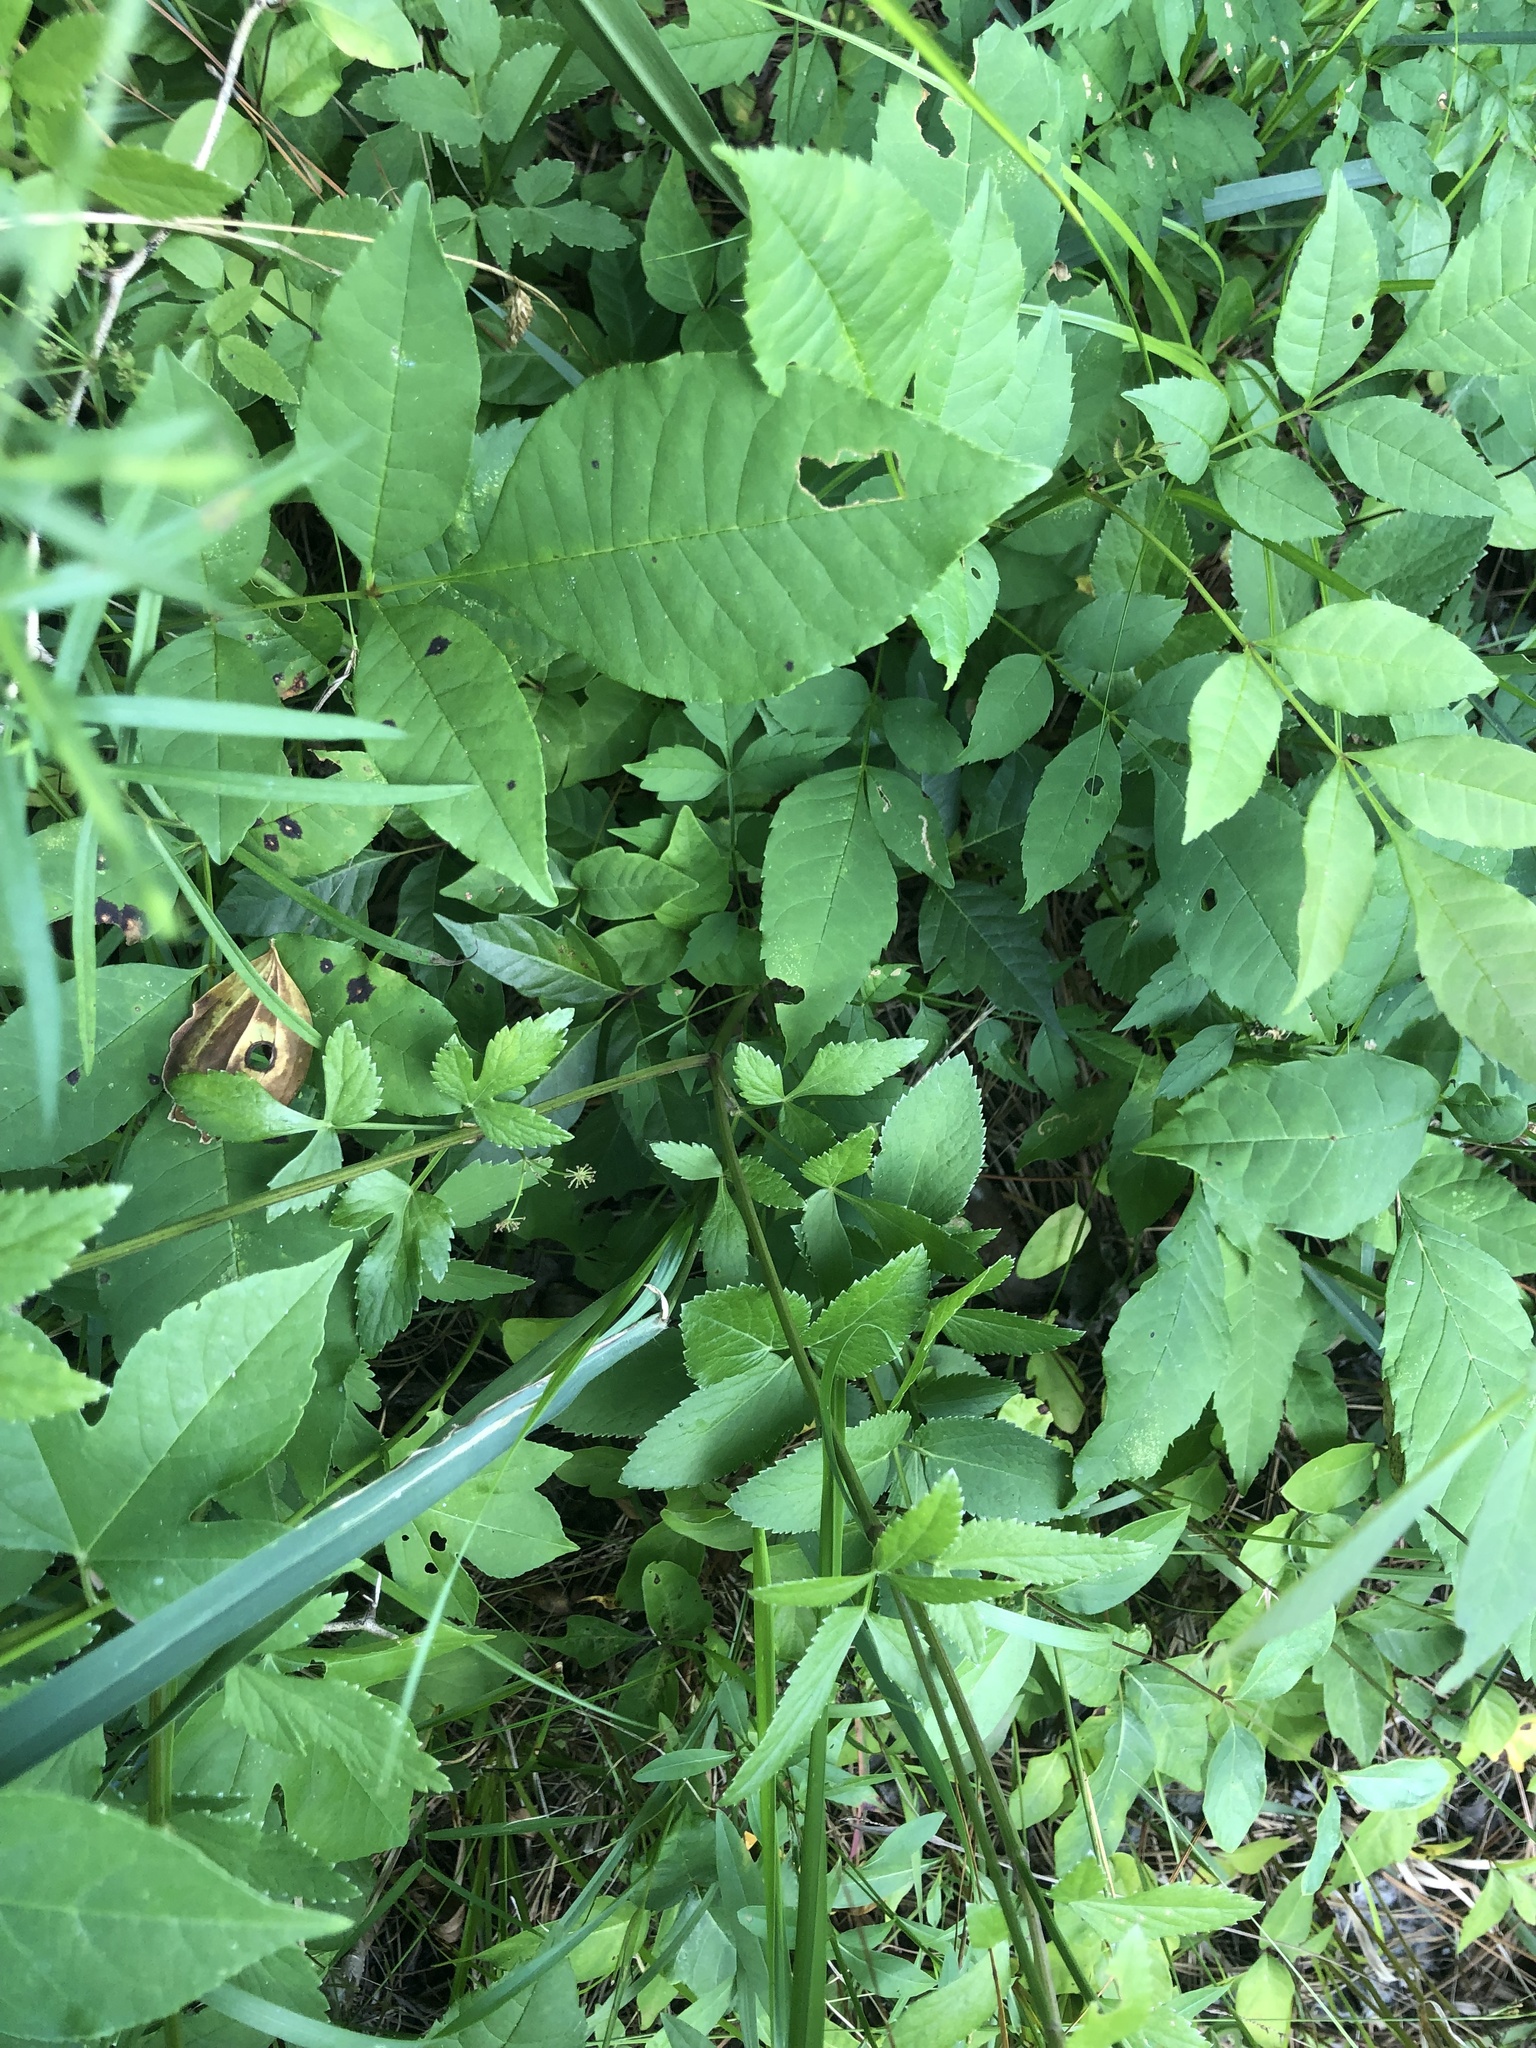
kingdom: Plantae
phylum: Tracheophyta
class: Magnoliopsida
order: Apiales
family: Apiaceae
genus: Zizia
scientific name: Zizia aurea
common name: Golden alexanders
